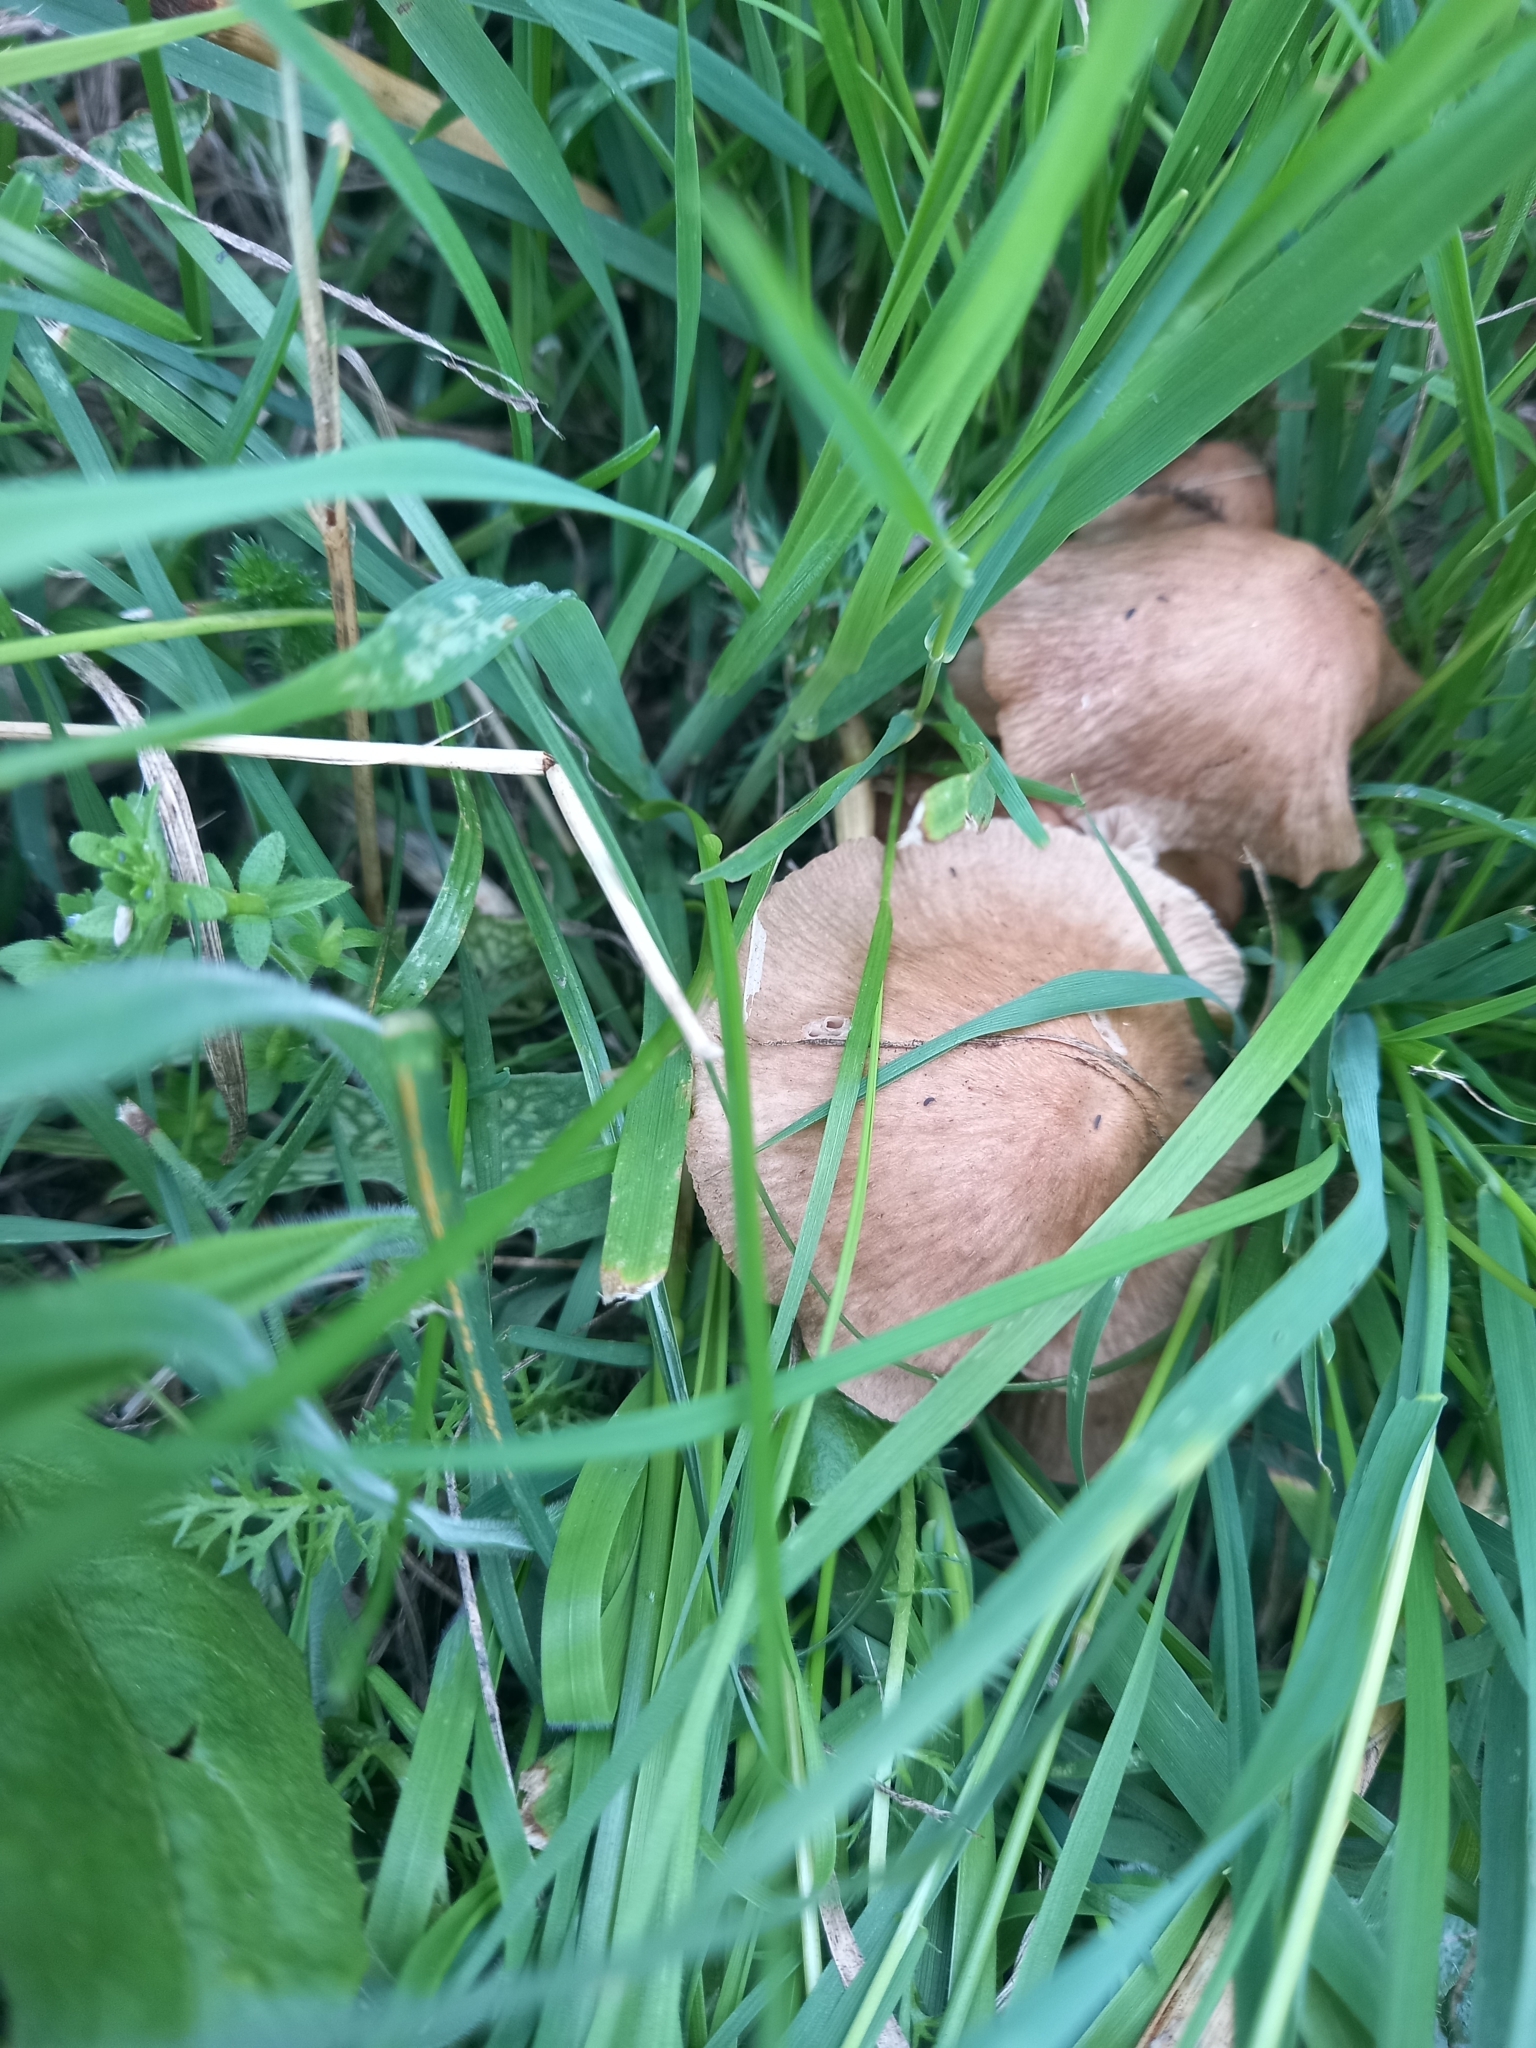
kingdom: Fungi
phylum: Basidiomycota
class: Agaricomycetes
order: Agaricales
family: Omphalotaceae
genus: Collybiopsis
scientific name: Collybiopsis subpruinosa
